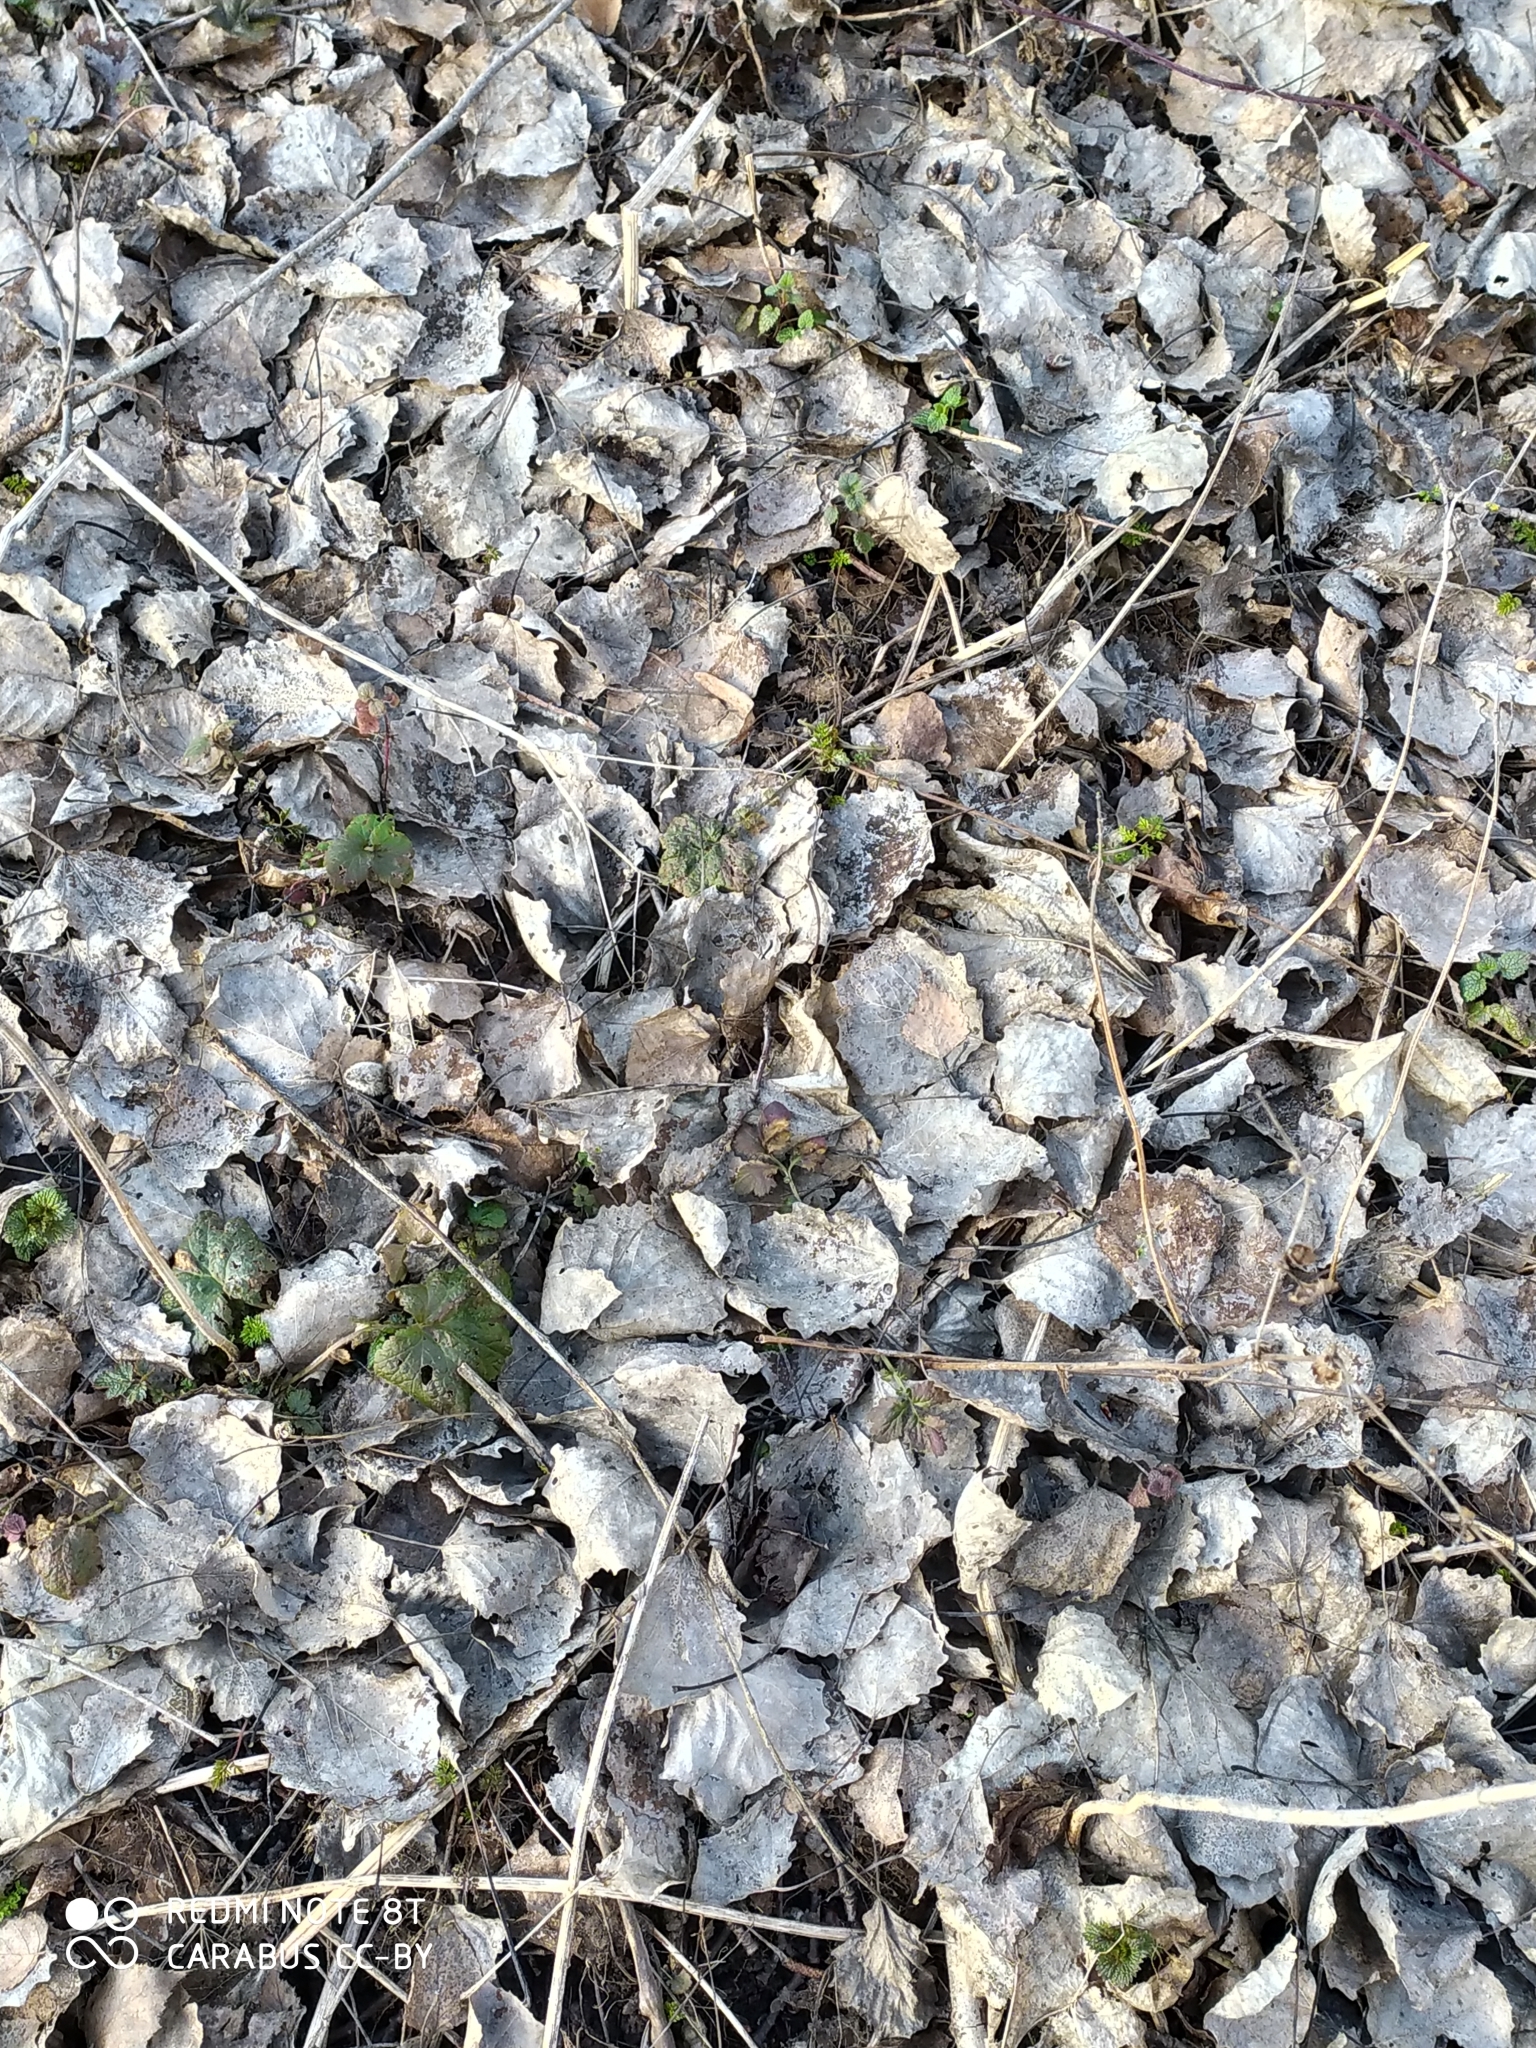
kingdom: Plantae
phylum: Tracheophyta
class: Magnoliopsida
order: Malpighiales
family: Salicaceae
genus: Populus
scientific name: Populus tremula
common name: European aspen
